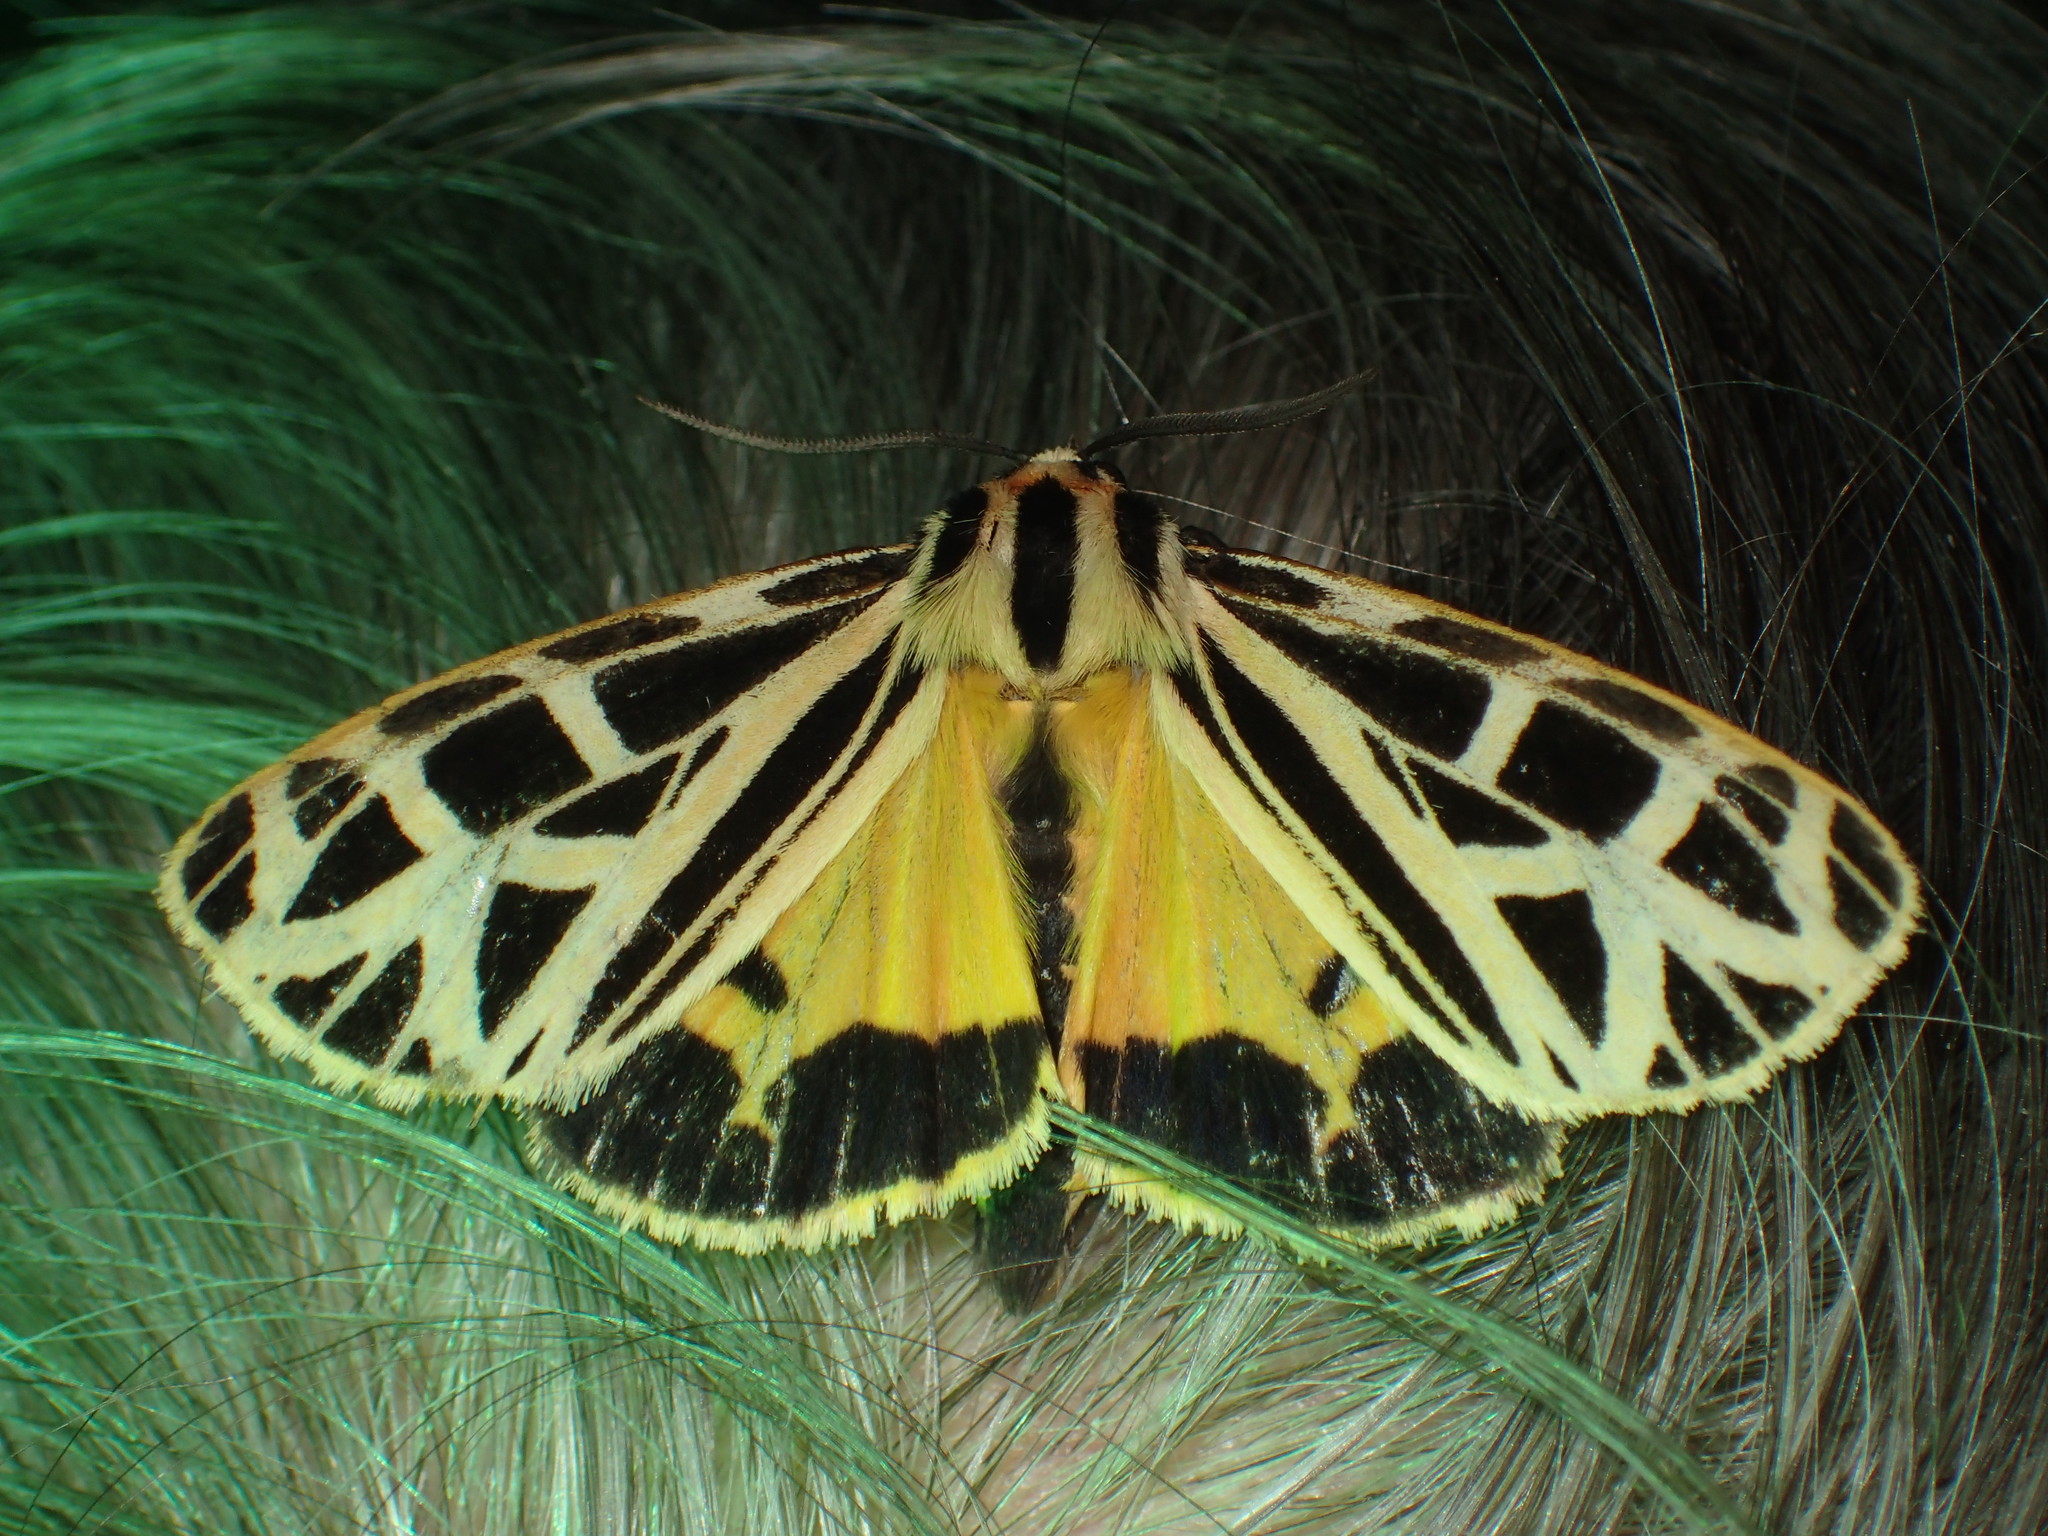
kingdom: Animalia
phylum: Arthropoda
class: Insecta
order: Lepidoptera
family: Erebidae
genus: Apantesis
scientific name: Apantesis
